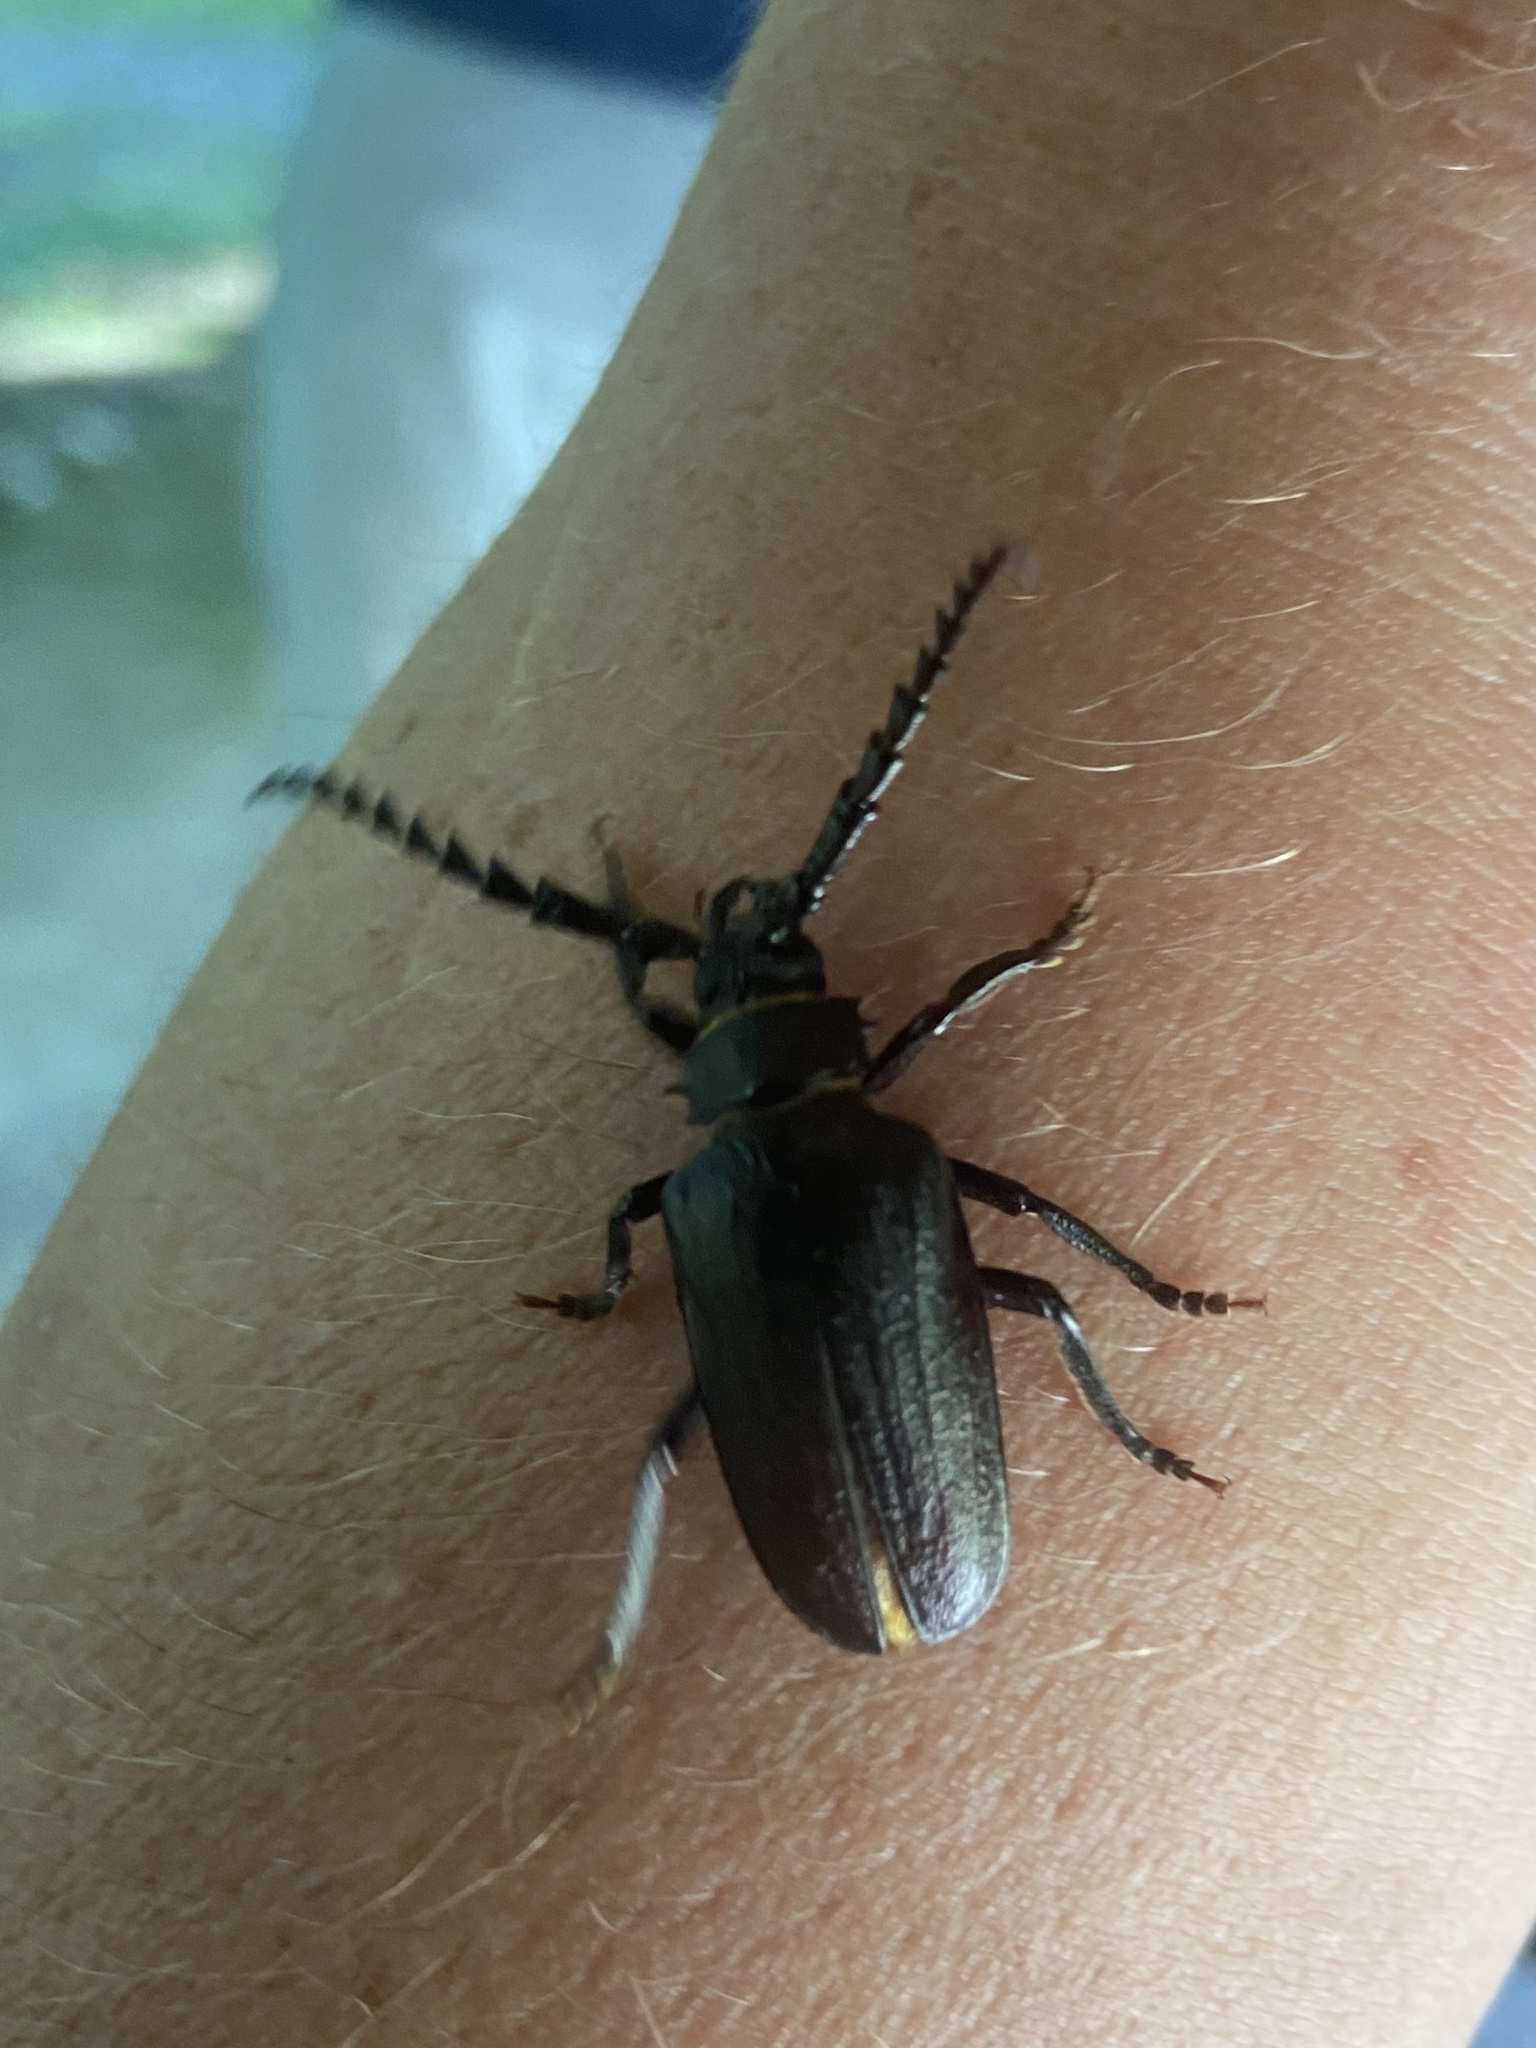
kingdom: Animalia
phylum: Arthropoda
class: Insecta
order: Coleoptera
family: Cerambycidae
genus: Prionus
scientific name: Prionus coriarius
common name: Tanner beetle
